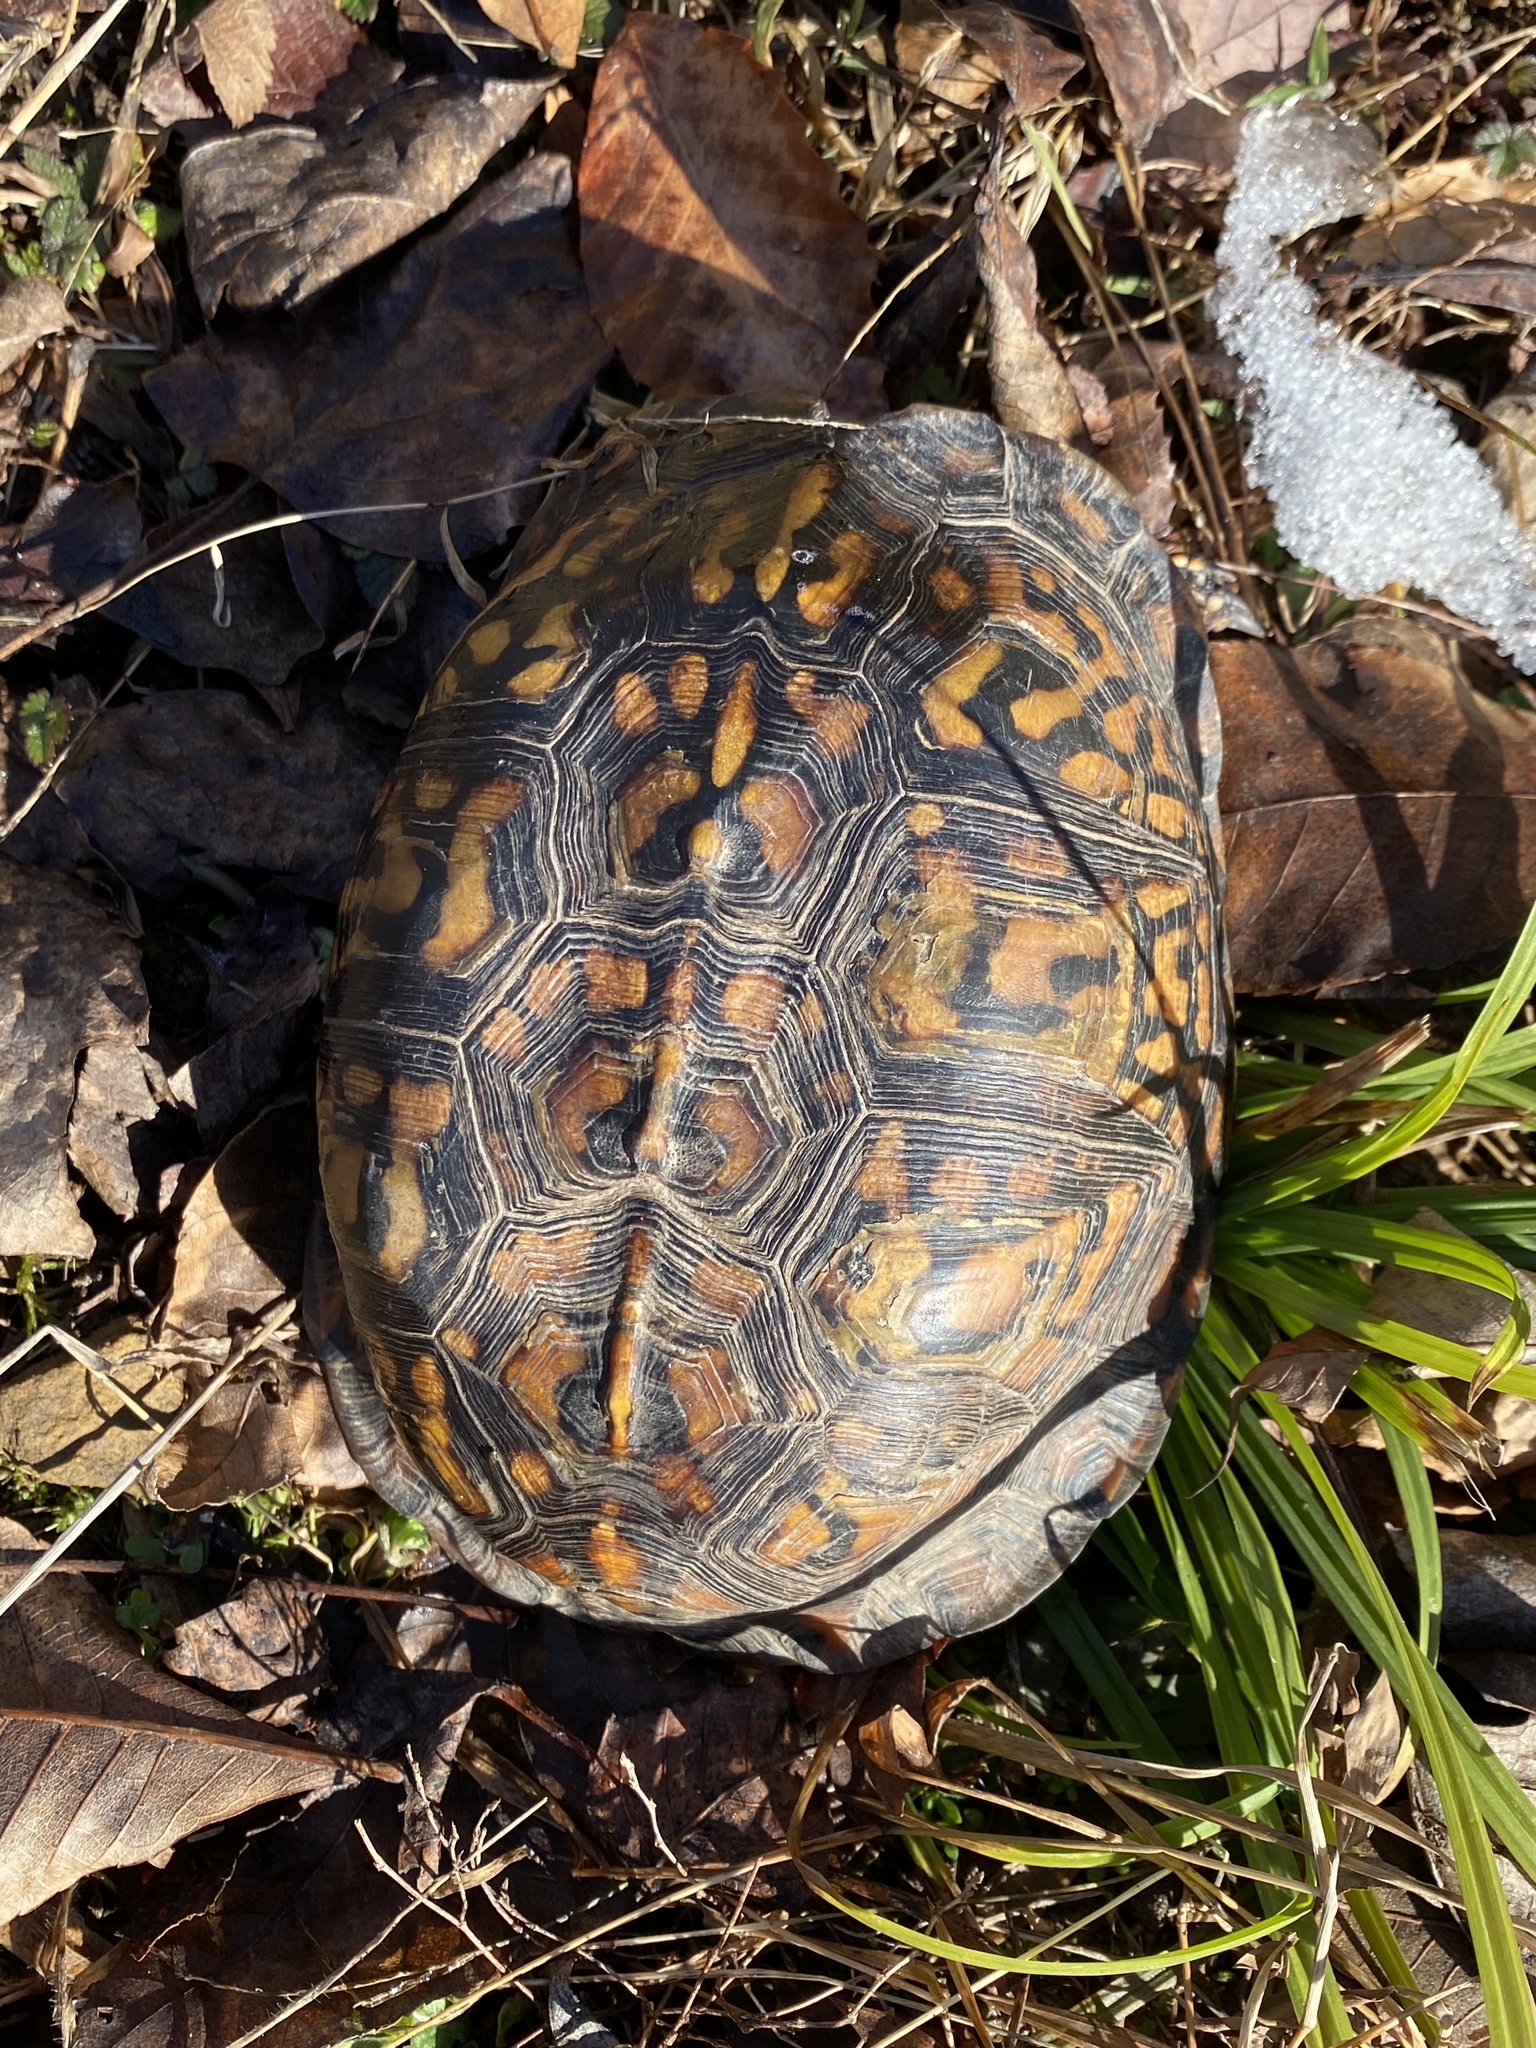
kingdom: Animalia
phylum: Chordata
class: Testudines
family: Emydidae
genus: Terrapene
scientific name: Terrapene carolina
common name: Common box turtle
